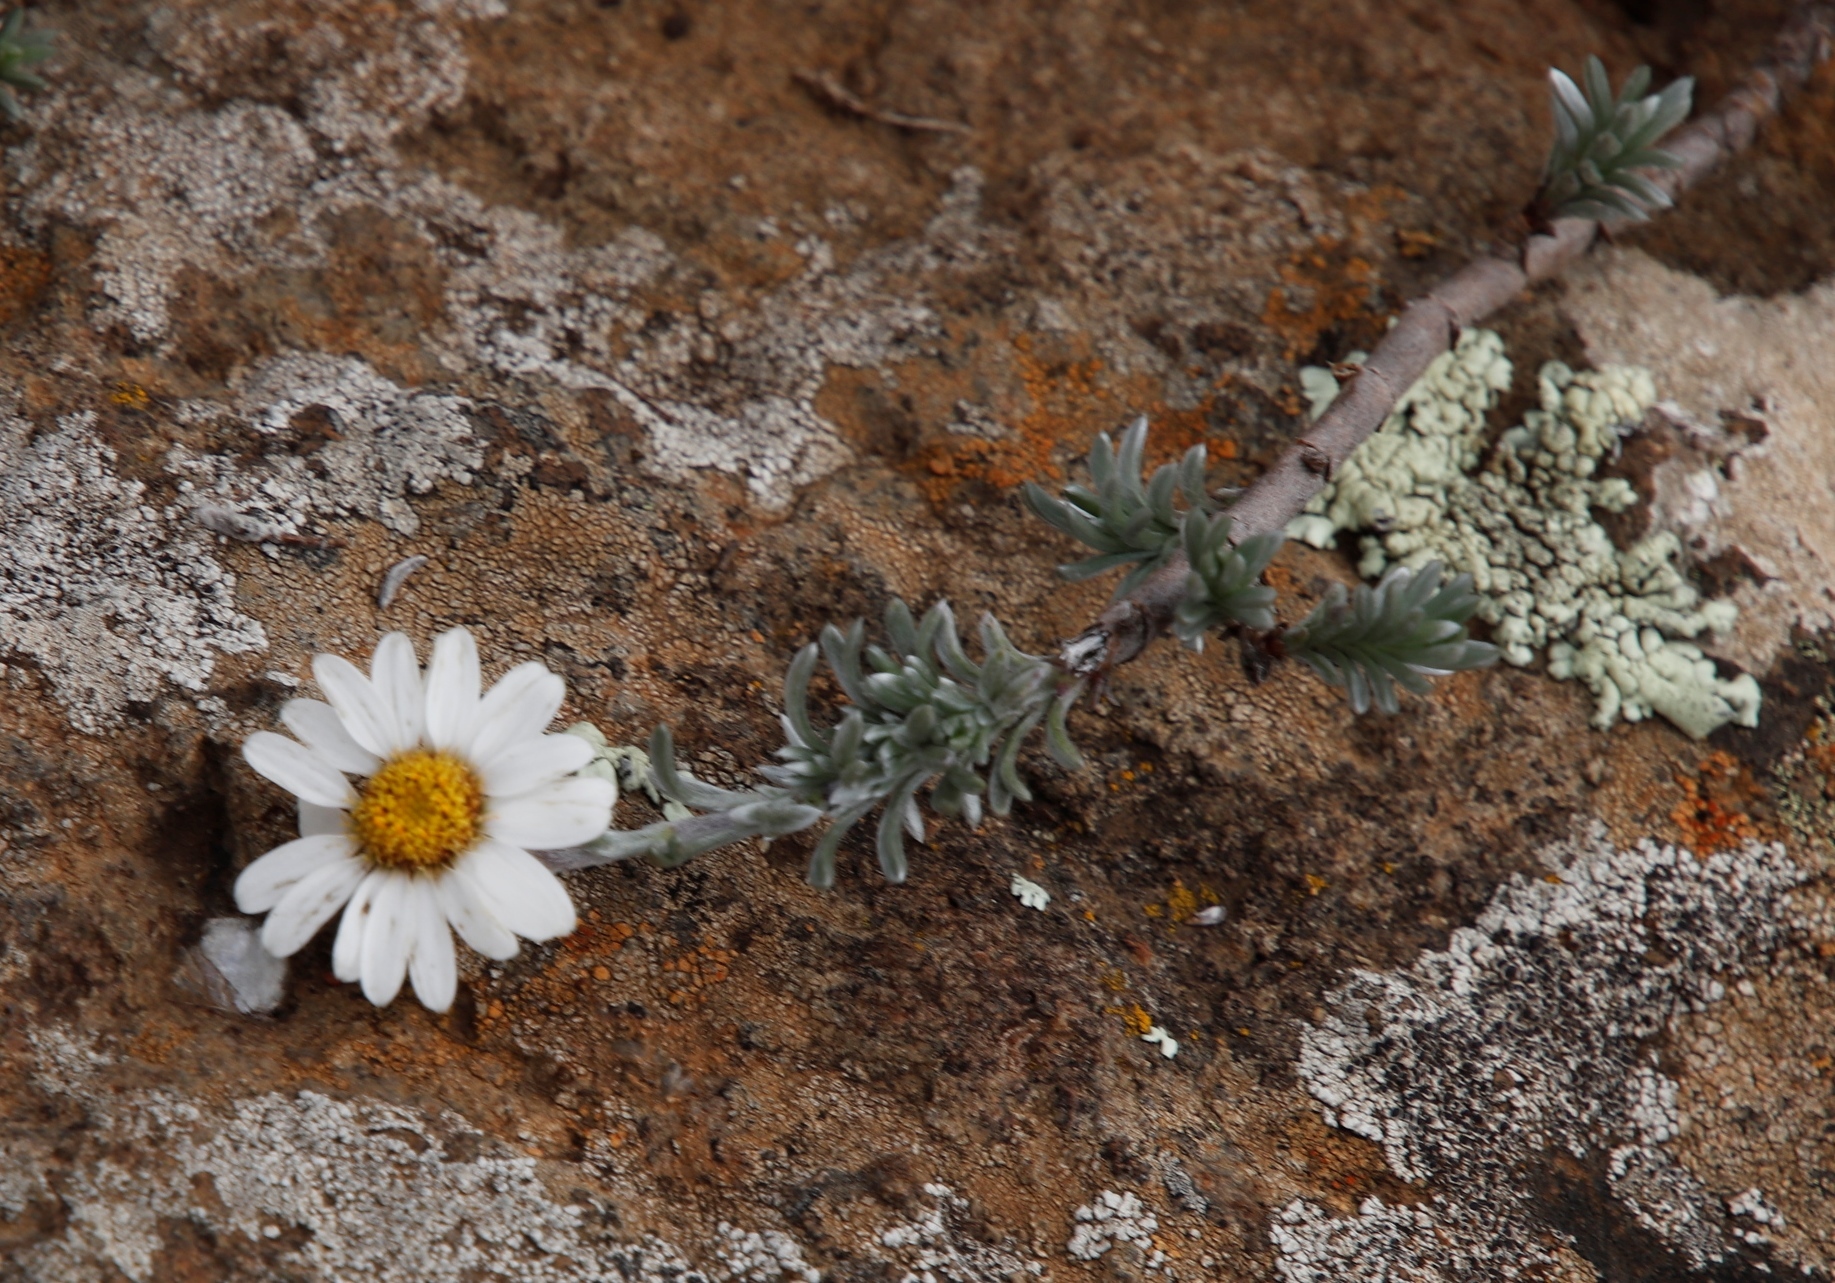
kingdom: Plantae
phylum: Tracheophyta
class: Magnoliopsida
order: Asterales
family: Asteraceae
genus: Eumorphia
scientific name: Eumorphia prostrata
